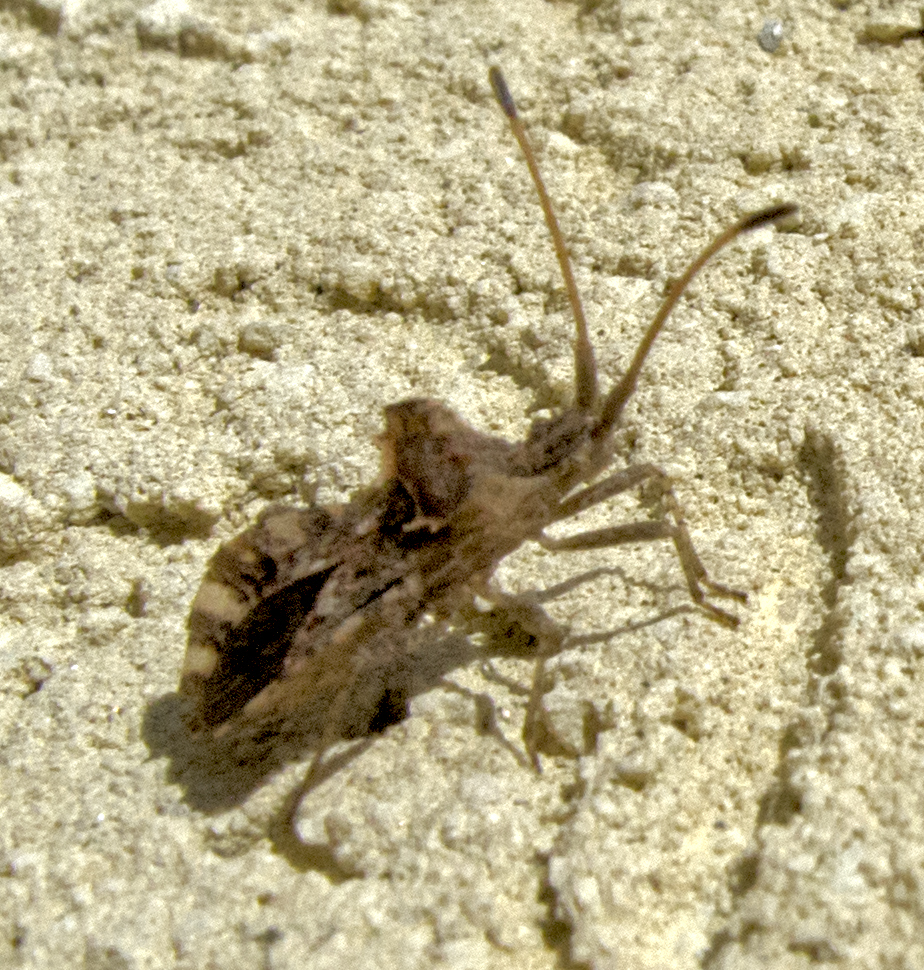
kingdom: Animalia
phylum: Arthropoda
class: Insecta
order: Hemiptera
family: Coreidae
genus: Centrocoris
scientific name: Centrocoris variegatus
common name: Leaf-footed bug
